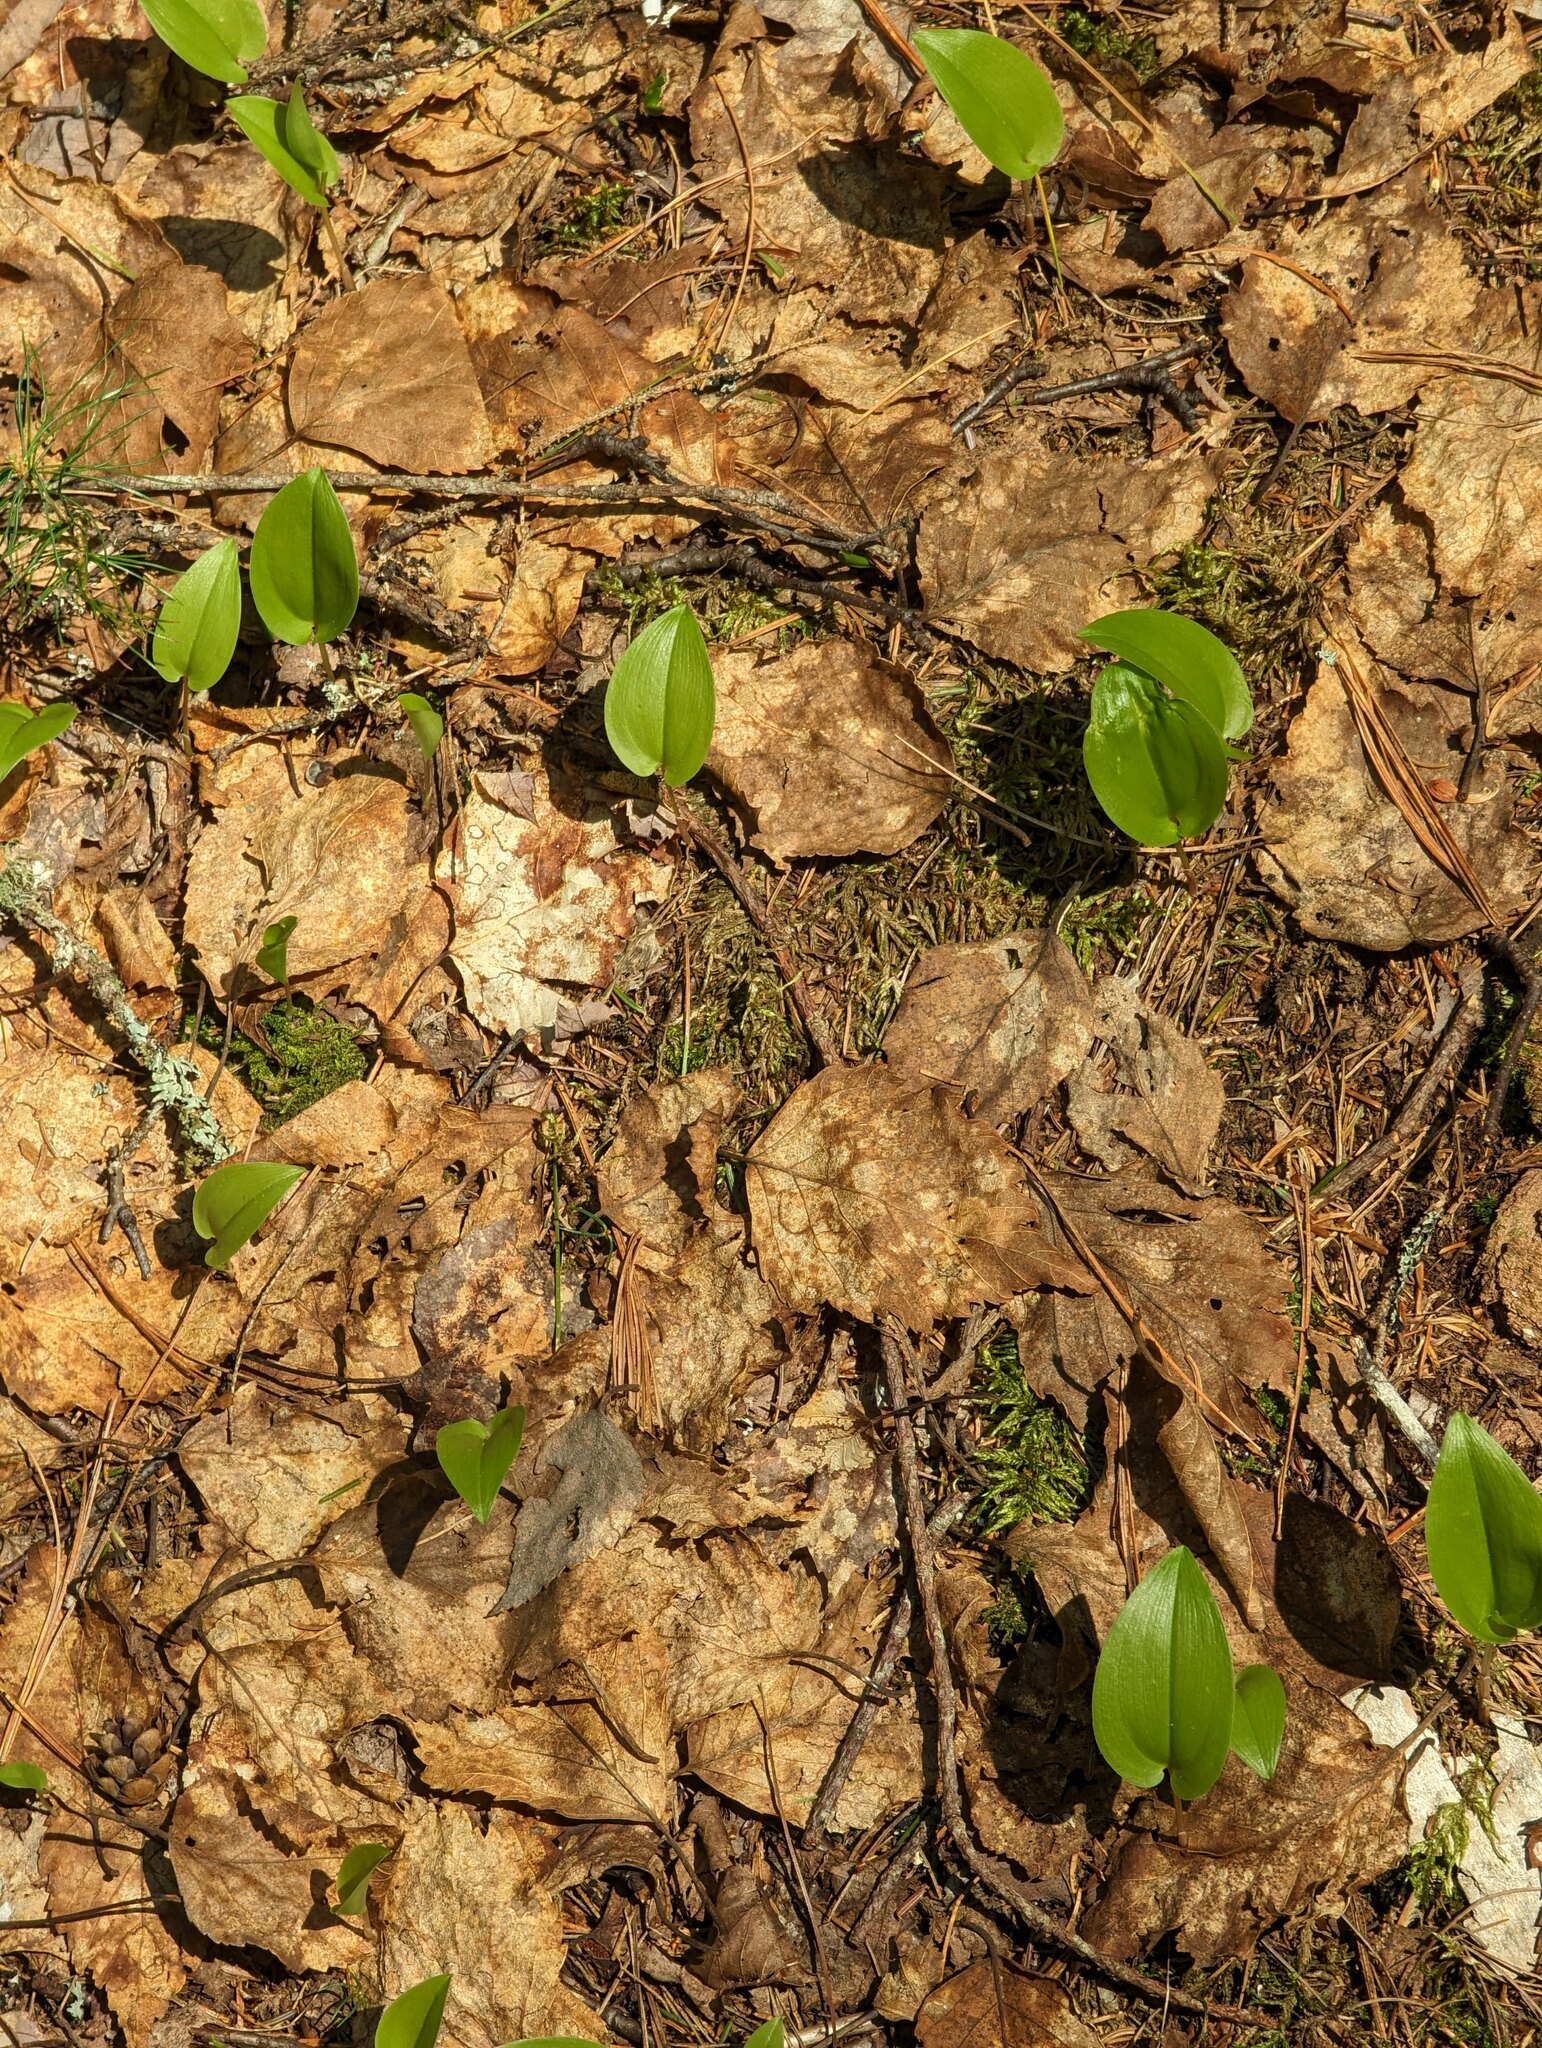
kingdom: Plantae
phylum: Tracheophyta
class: Liliopsida
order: Asparagales
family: Asparagaceae
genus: Maianthemum
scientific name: Maianthemum canadense
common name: False lily-of-the-valley
